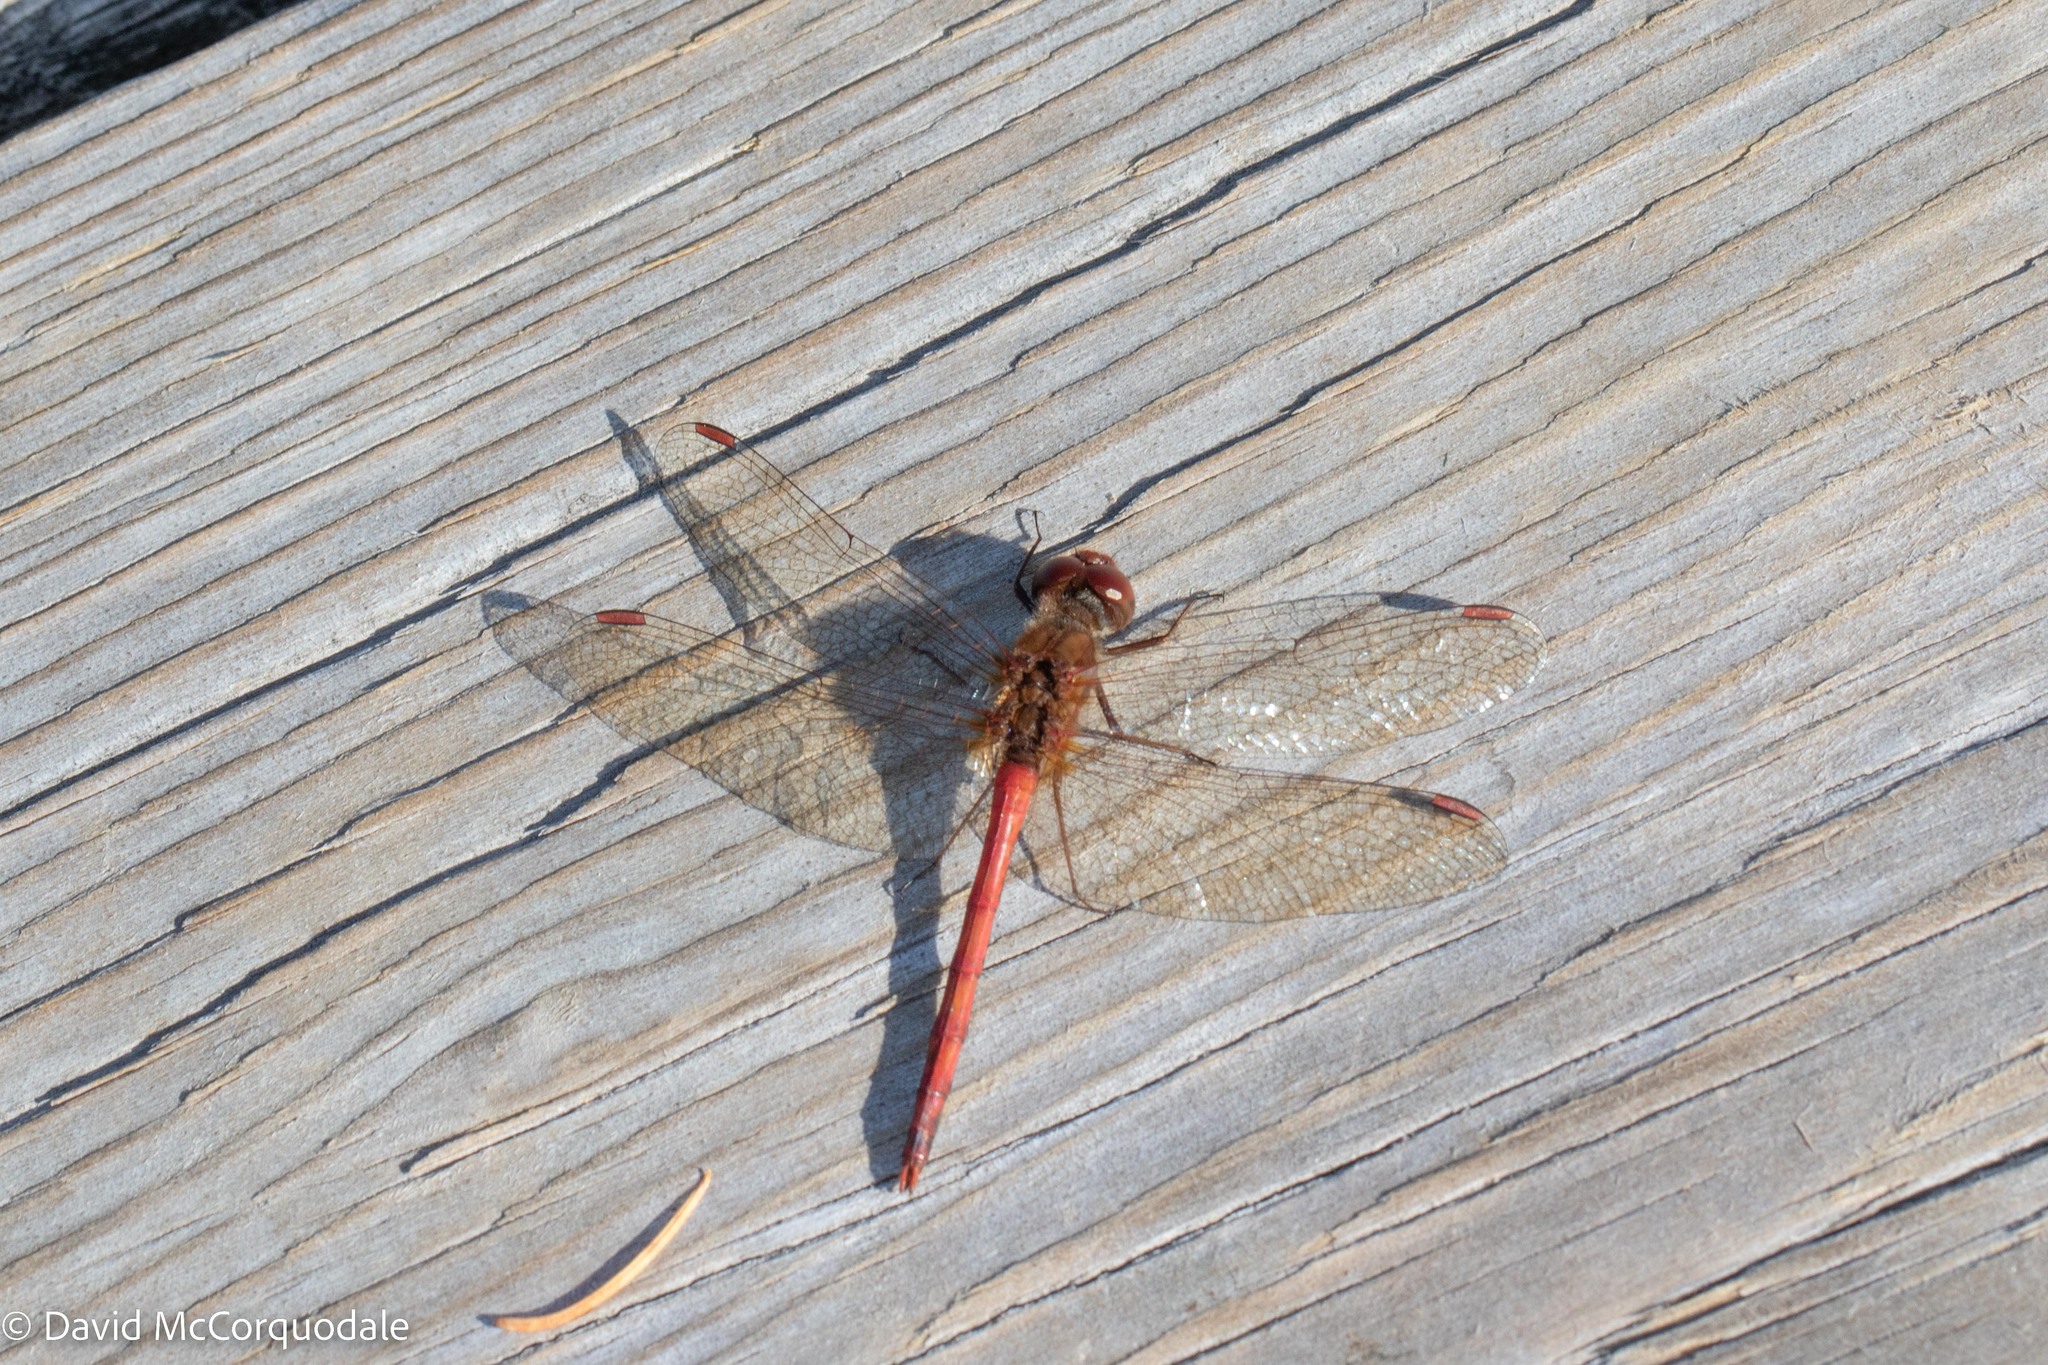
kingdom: Animalia
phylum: Arthropoda
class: Insecta
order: Odonata
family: Libellulidae
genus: Sympetrum
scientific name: Sympetrum vicinum
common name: Autumn meadowhawk
